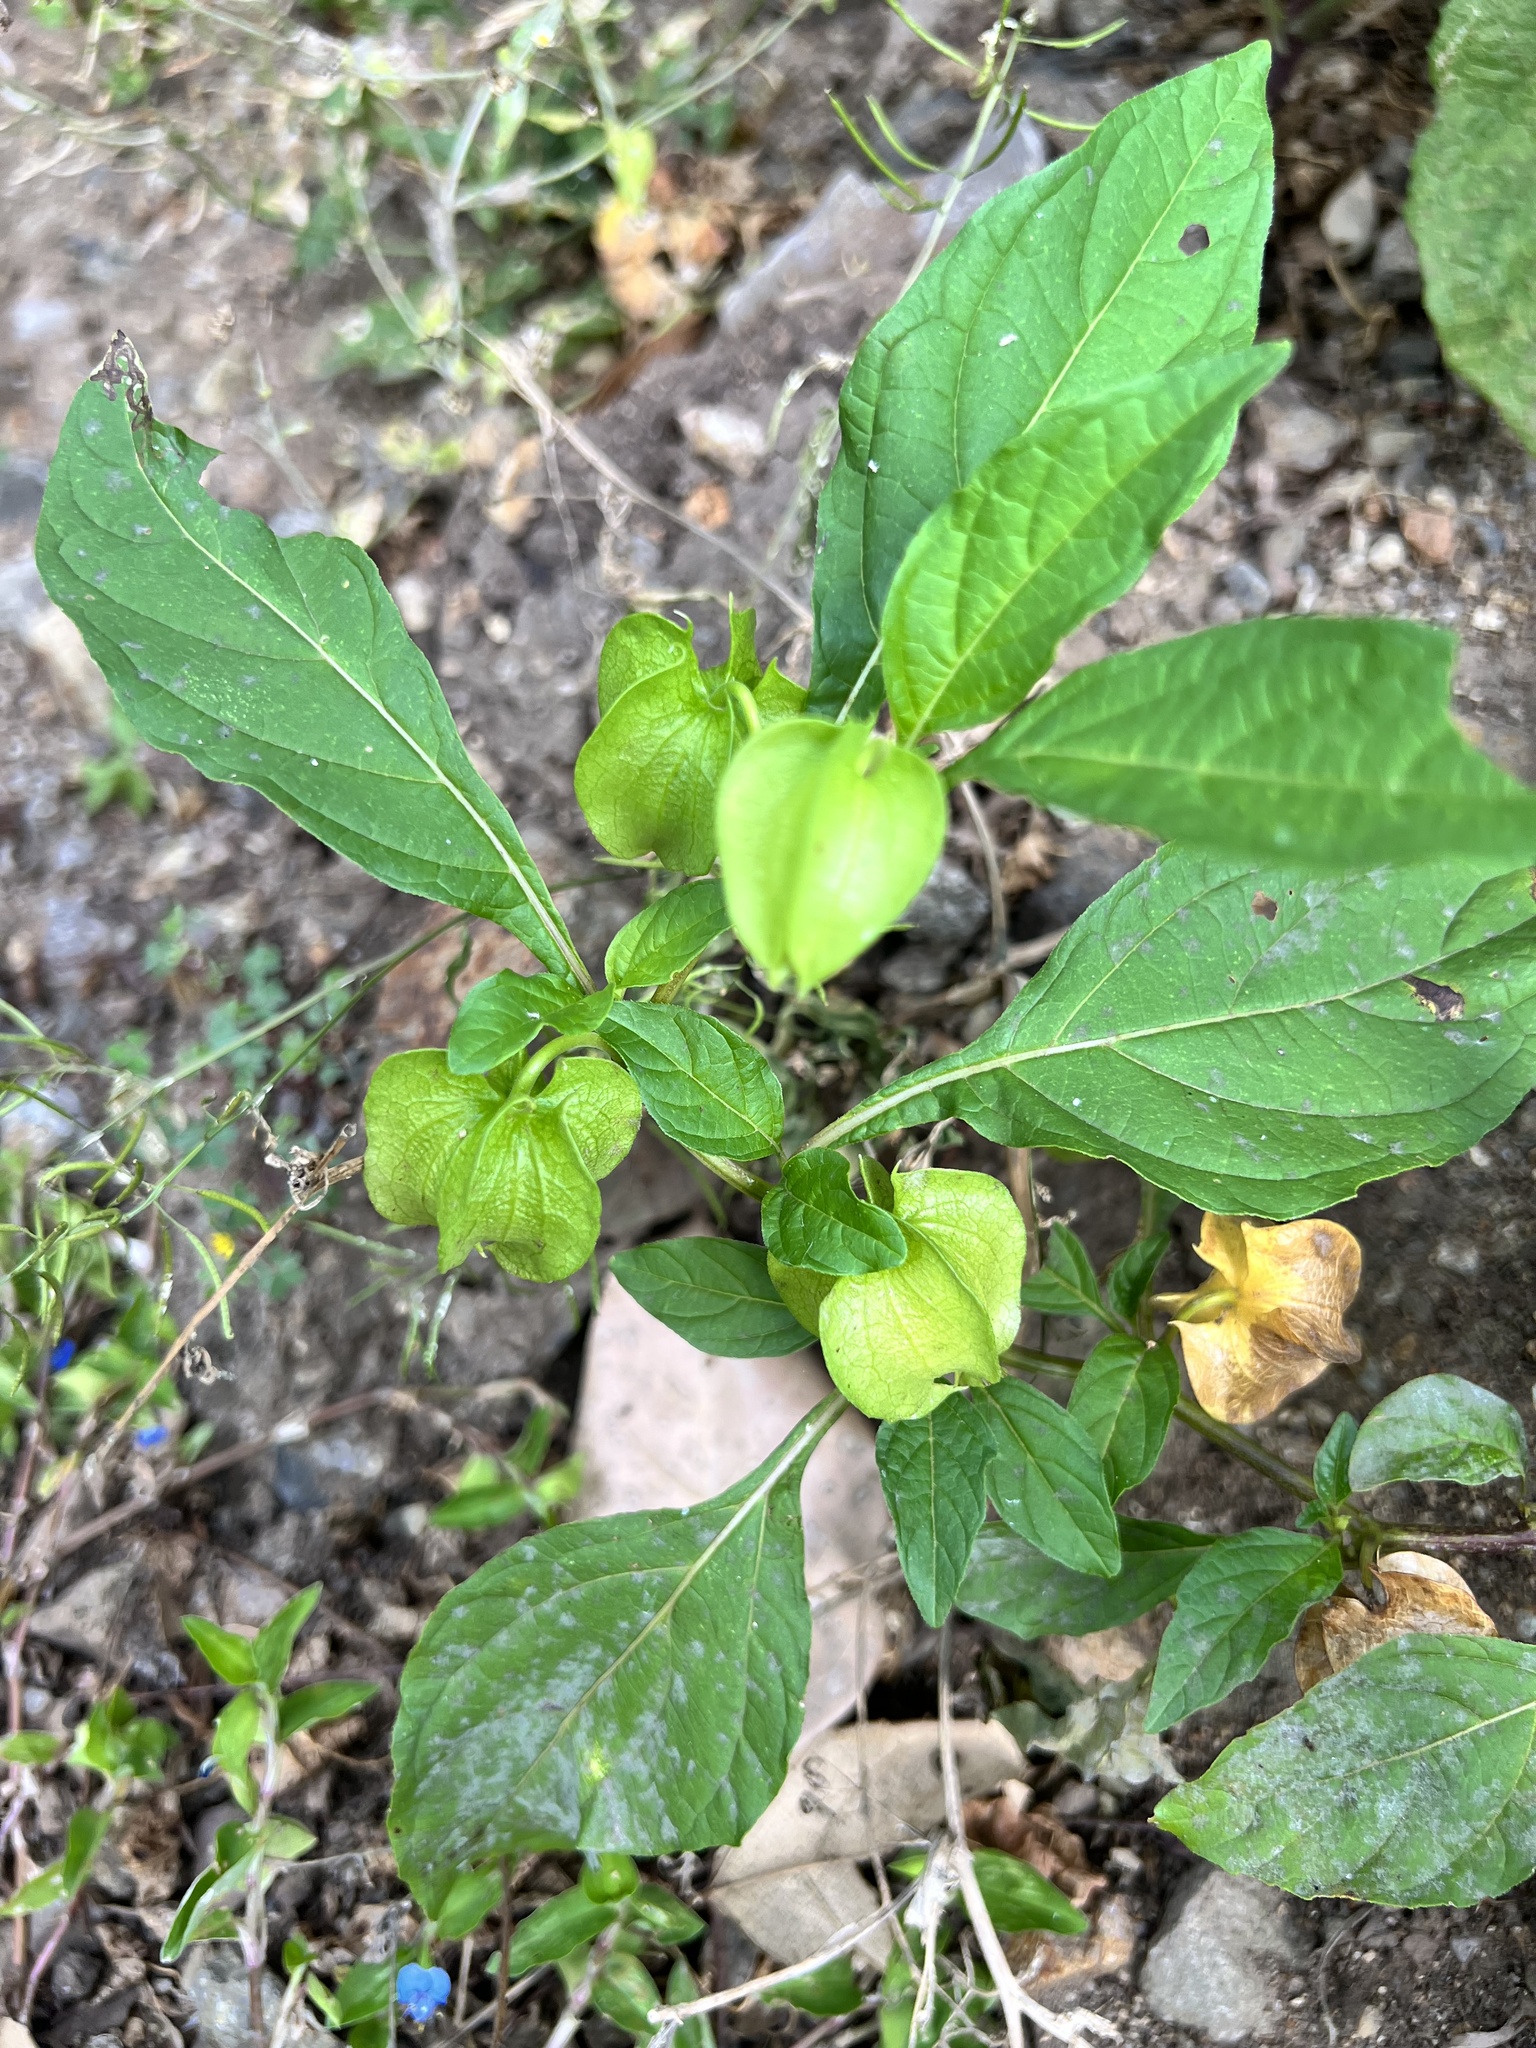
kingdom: Plantae
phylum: Tracheophyta
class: Magnoliopsida
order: Solanales
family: Solanaceae
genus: Nicandra
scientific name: Nicandra physalodes
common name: Apple-of-peru
